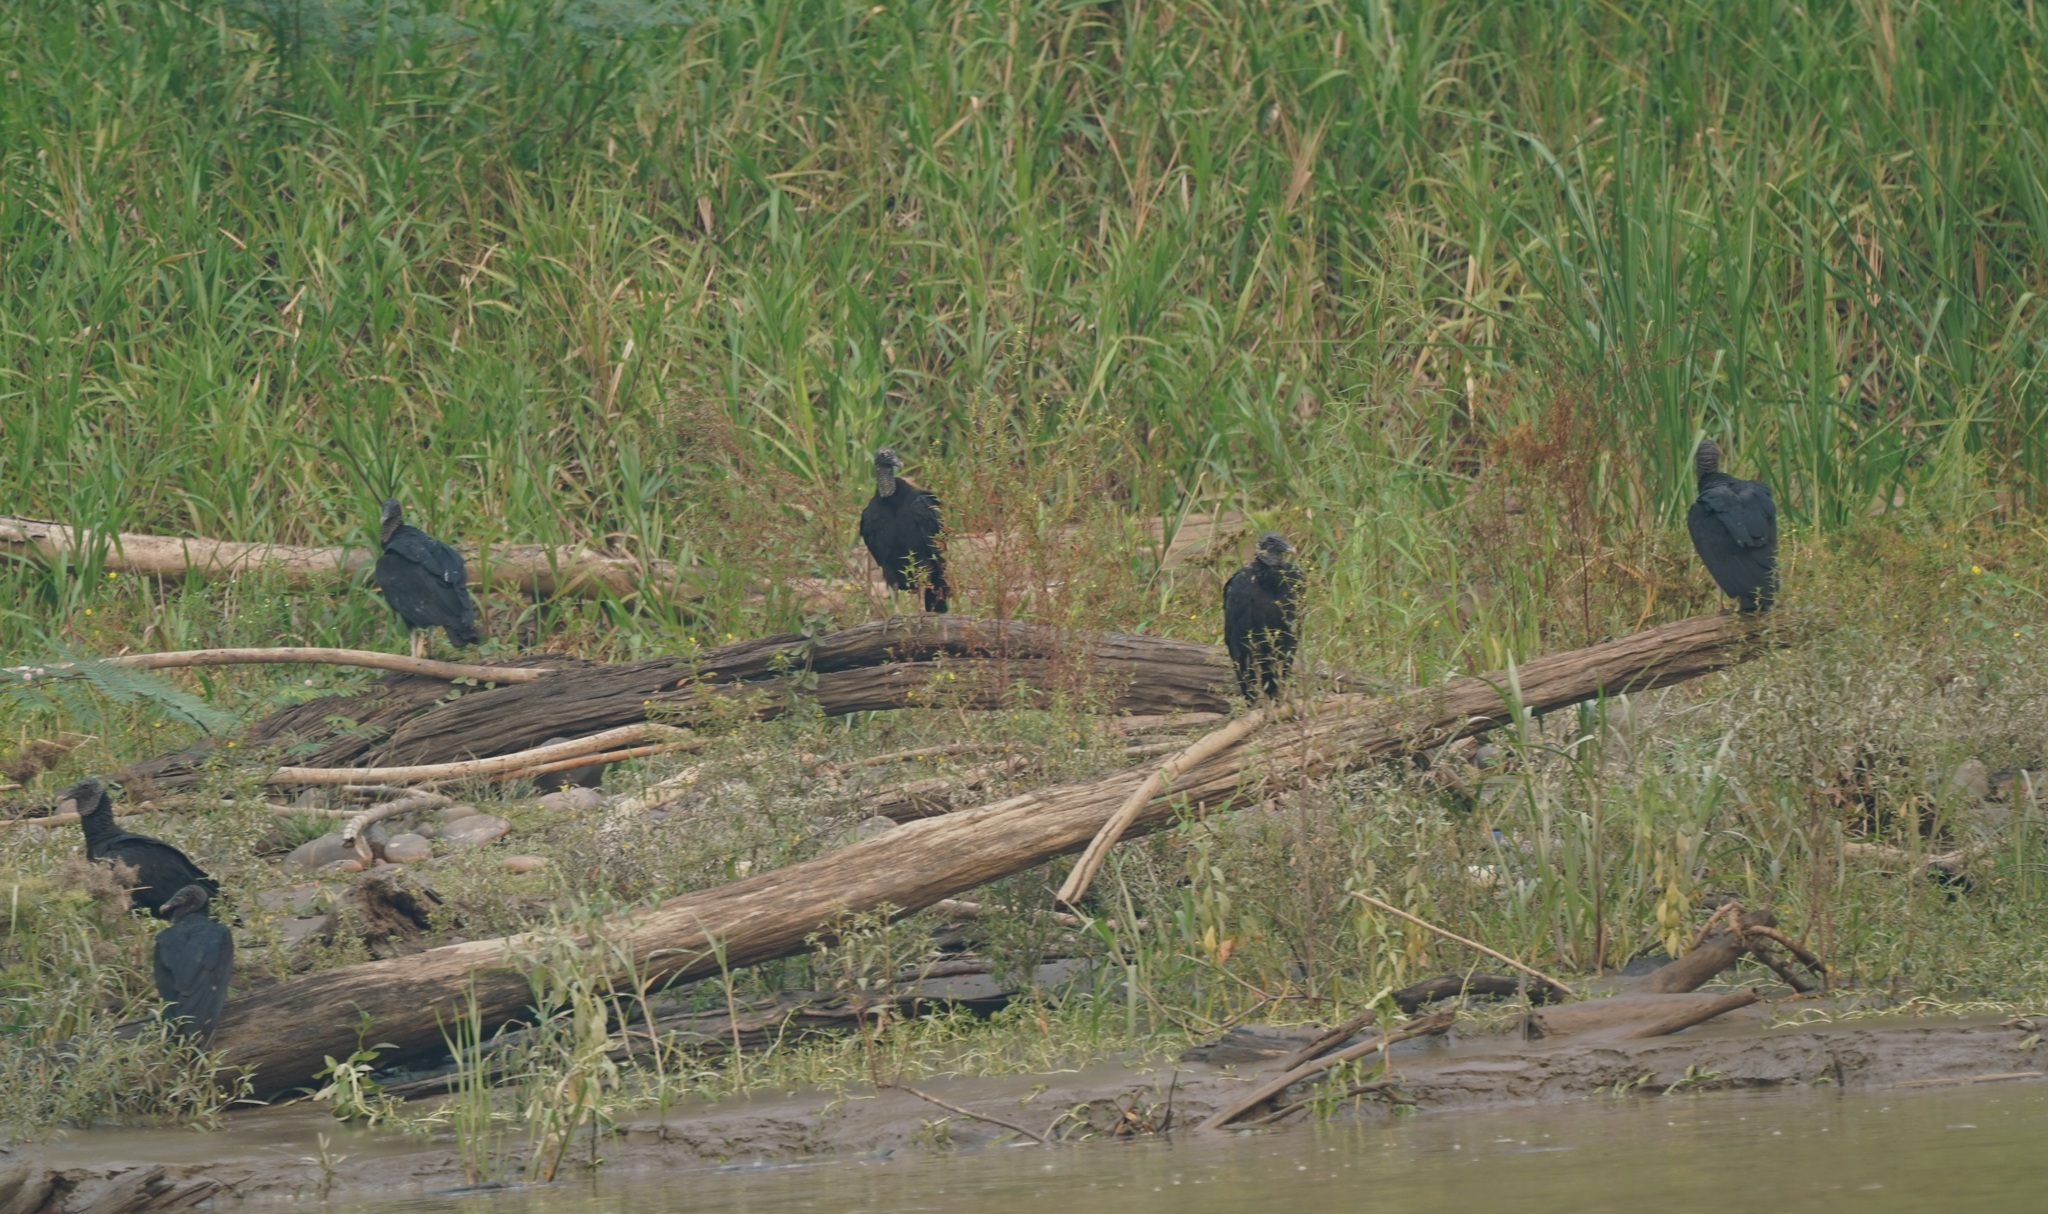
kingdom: Animalia
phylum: Chordata
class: Aves
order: Accipitriformes
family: Cathartidae
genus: Coragyps
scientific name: Coragyps atratus
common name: Black vulture
